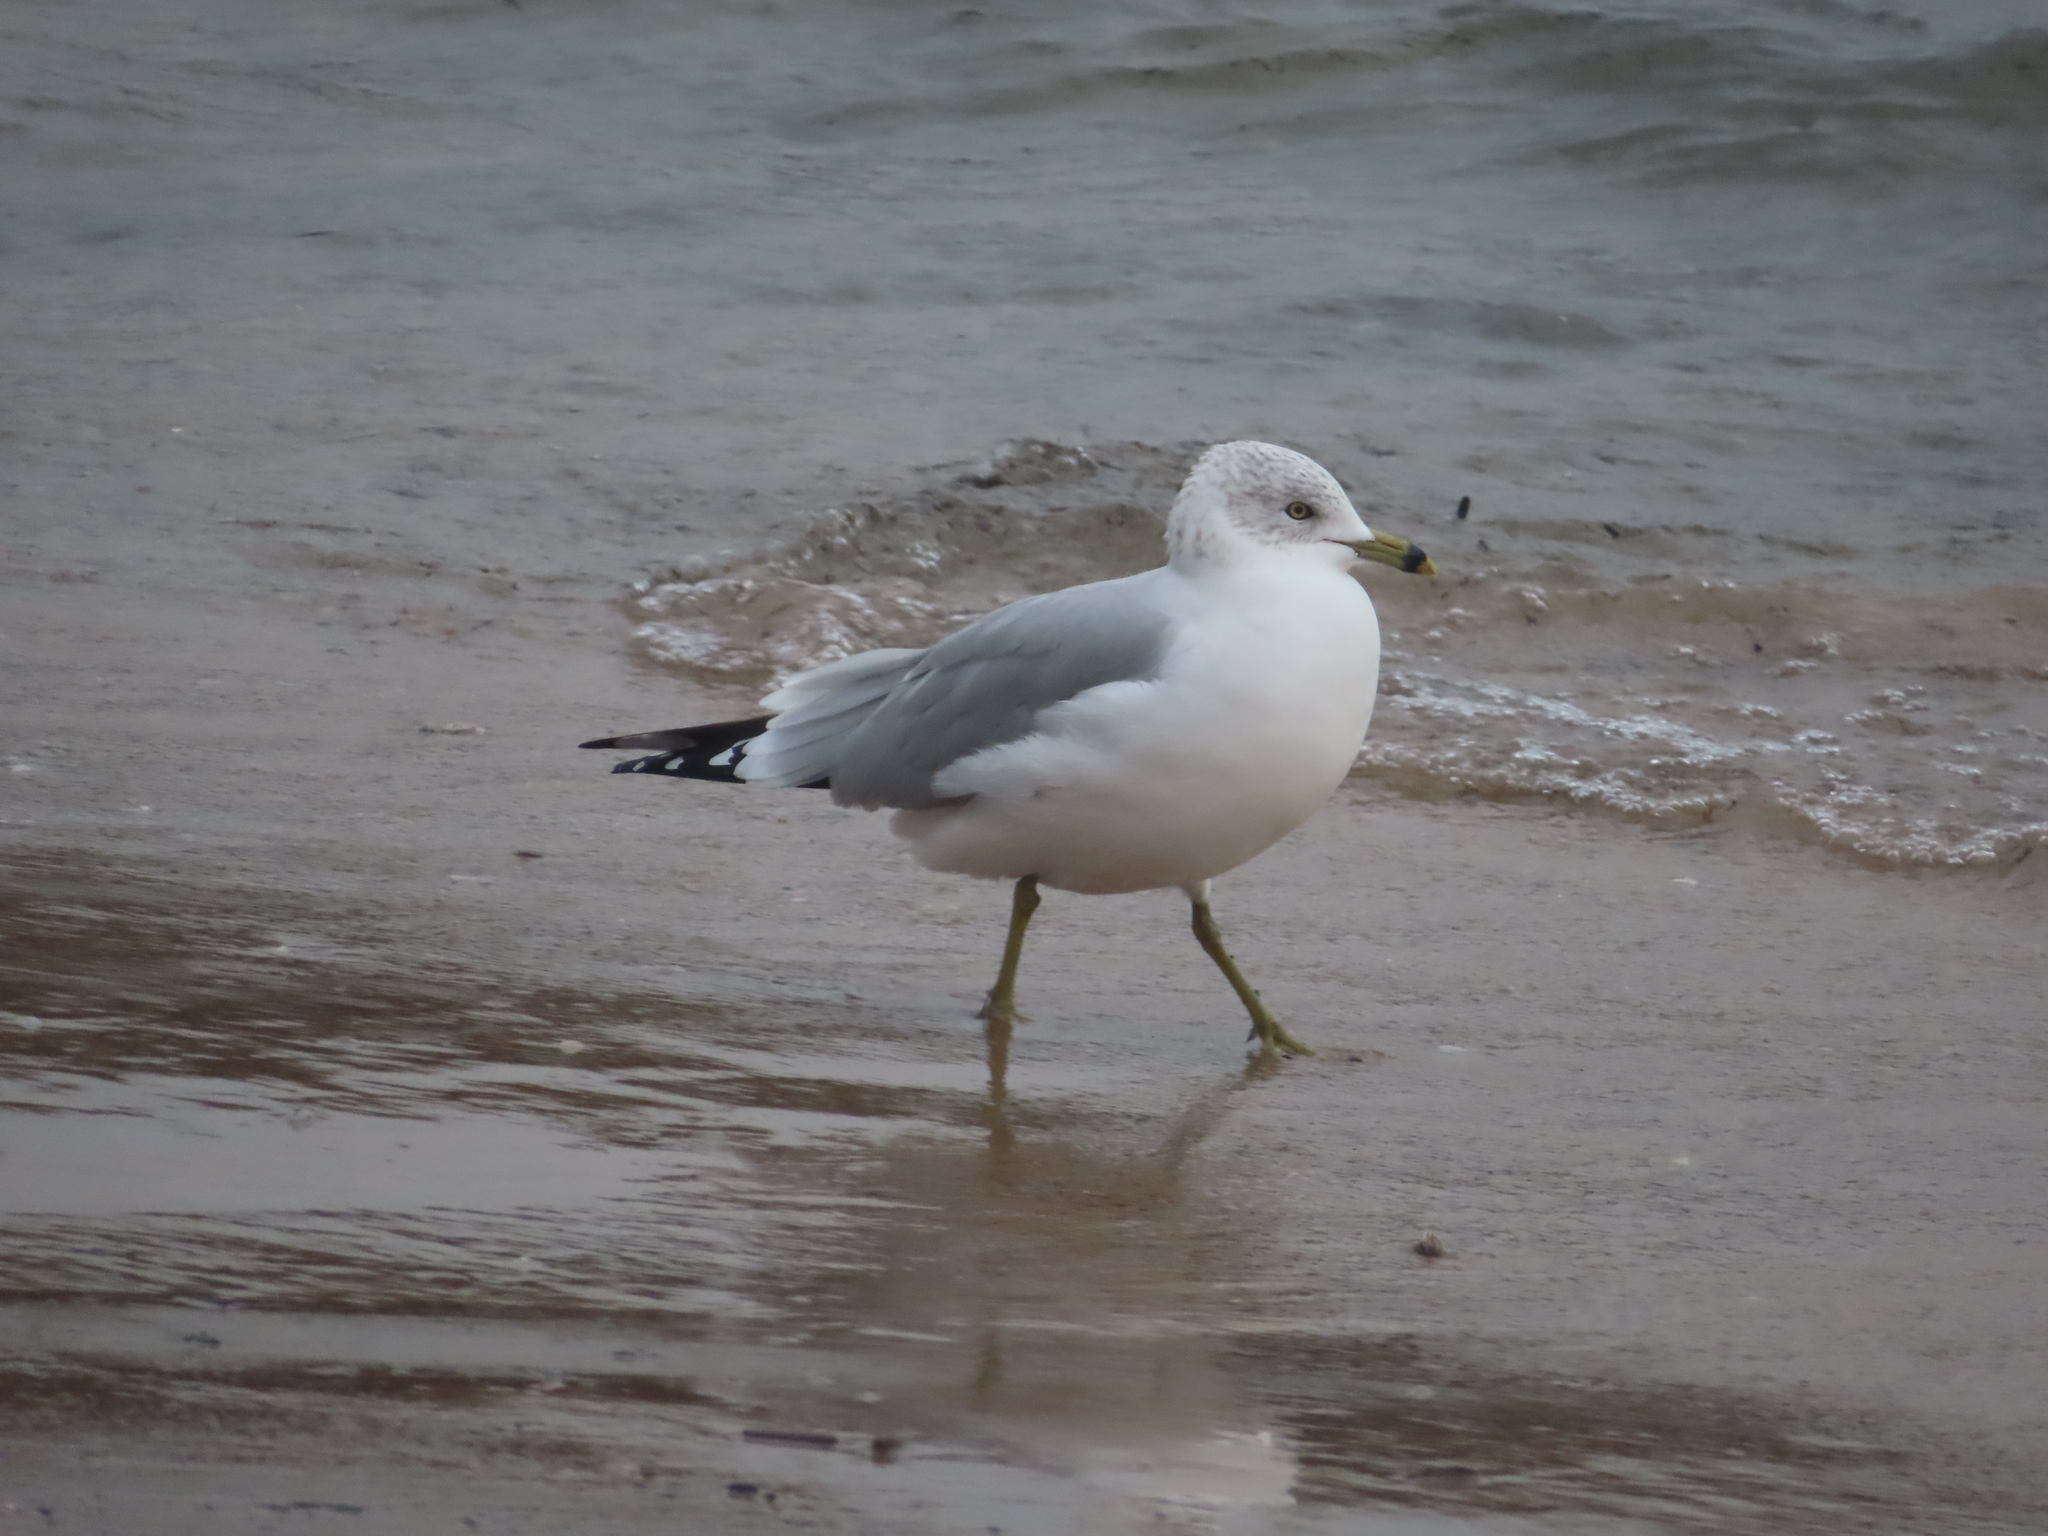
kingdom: Animalia
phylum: Chordata
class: Aves
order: Charadriiformes
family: Laridae
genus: Larus
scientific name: Larus delawarensis
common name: Ring-billed gull
